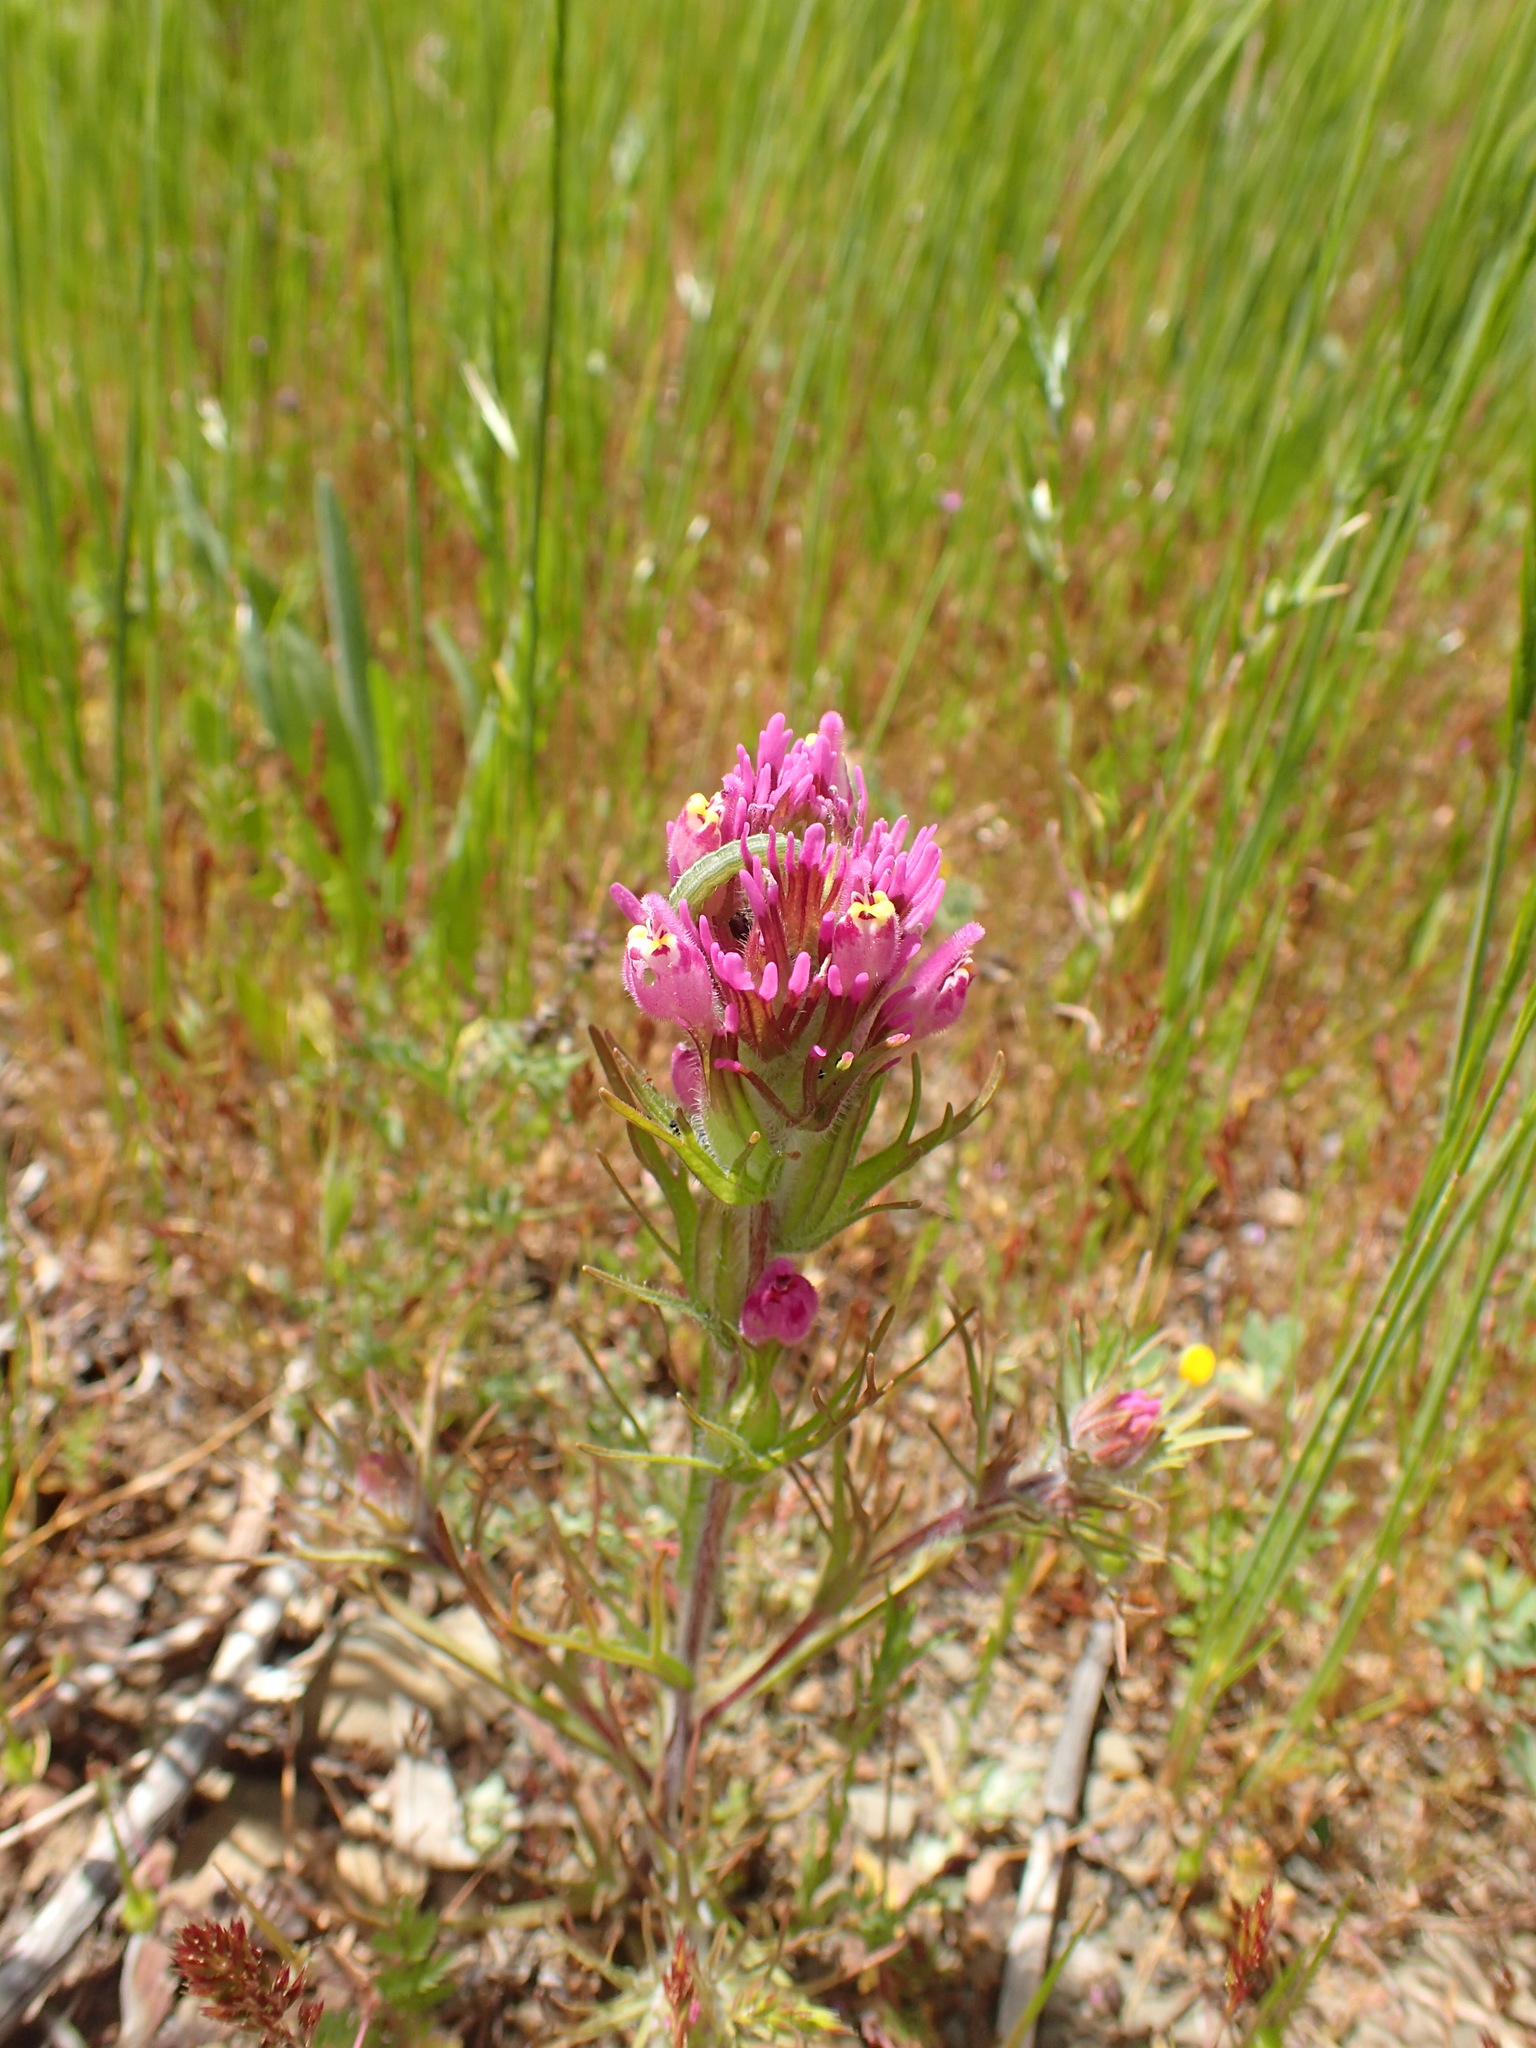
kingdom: Plantae
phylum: Tracheophyta
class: Magnoliopsida
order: Lamiales
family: Orobanchaceae
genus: Castilleja
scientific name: Castilleja exserta
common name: Purple owl-clover
